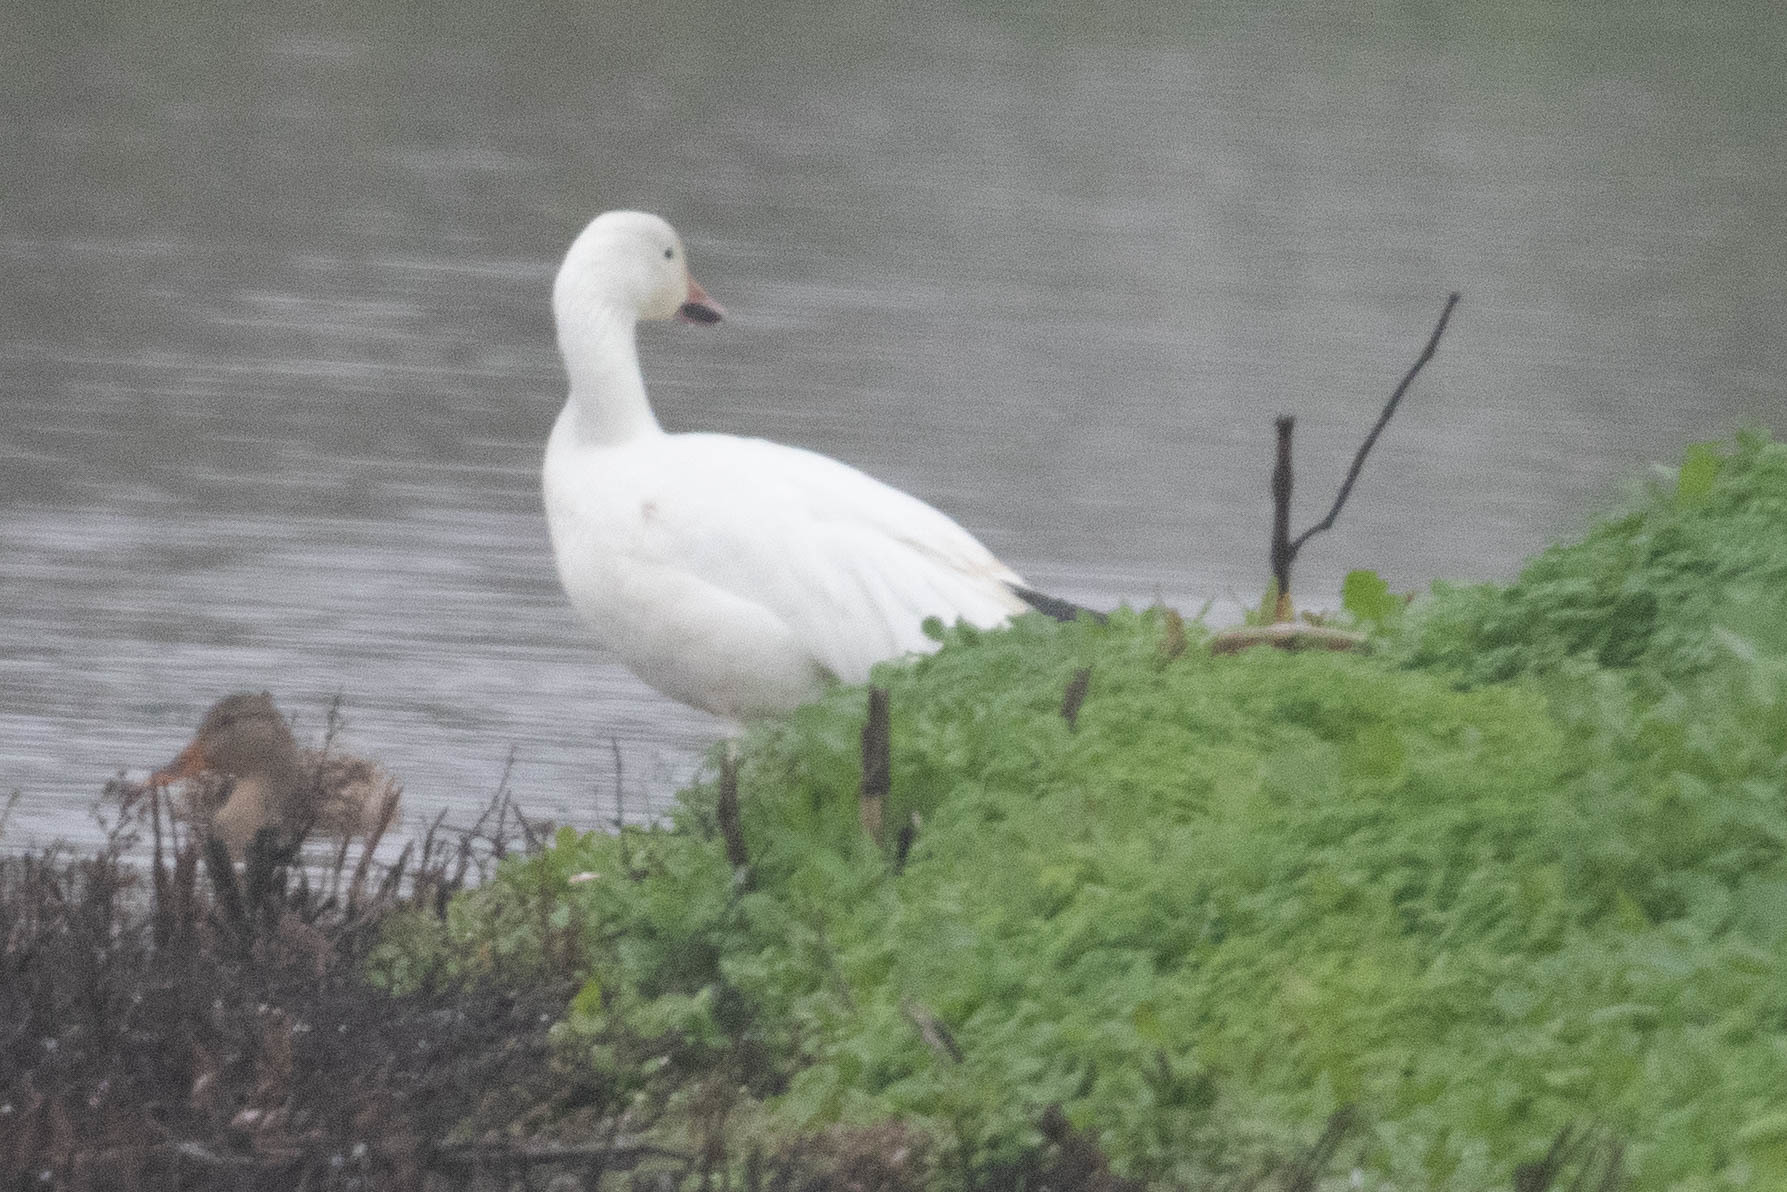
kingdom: Animalia
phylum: Chordata
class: Aves
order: Anseriformes
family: Anatidae
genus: Anser
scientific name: Anser caerulescens
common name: Snow goose
